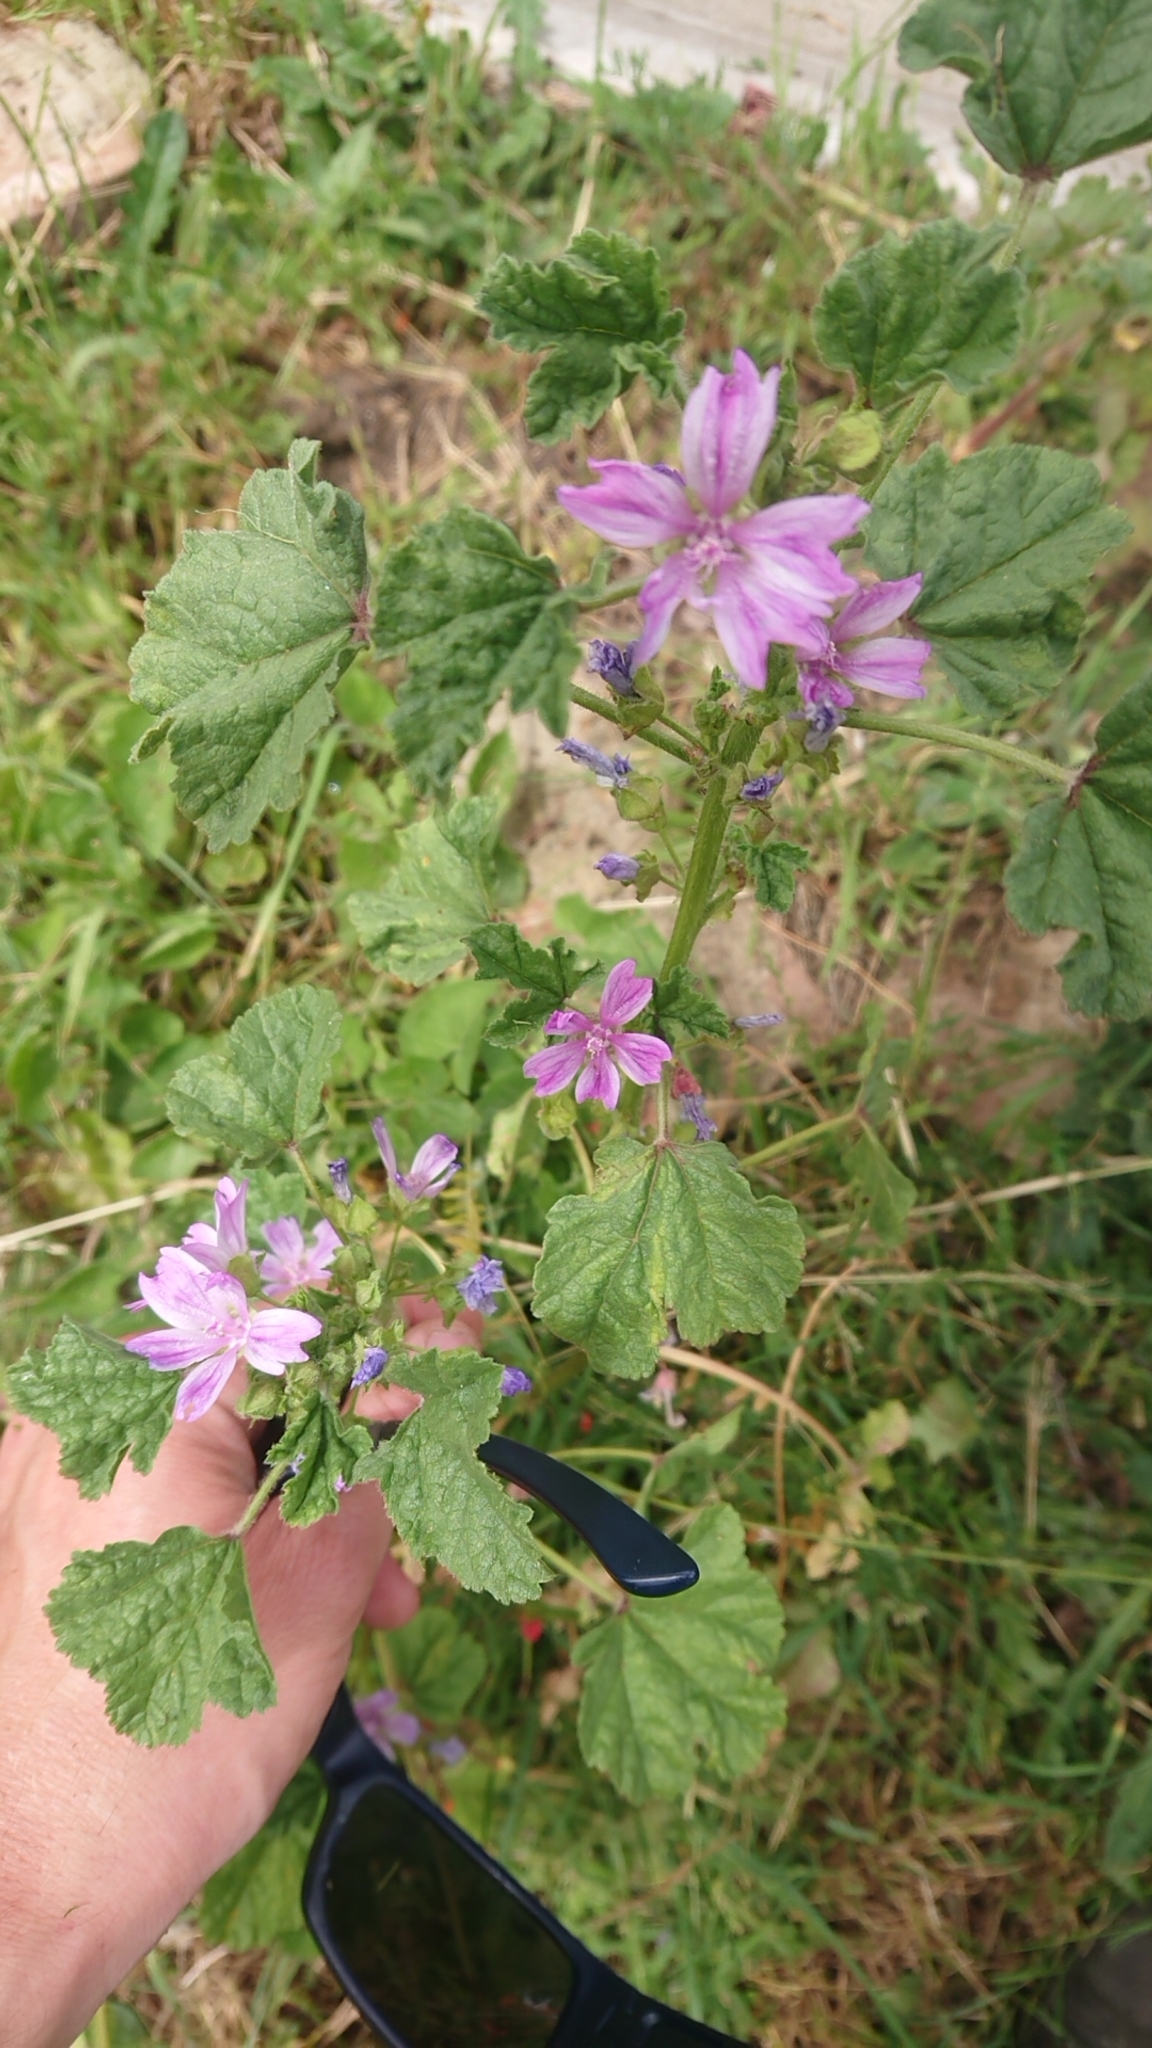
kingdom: Plantae
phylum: Tracheophyta
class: Magnoliopsida
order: Malvales
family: Malvaceae
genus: Malva
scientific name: Malva sylvestris
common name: Common mallow
